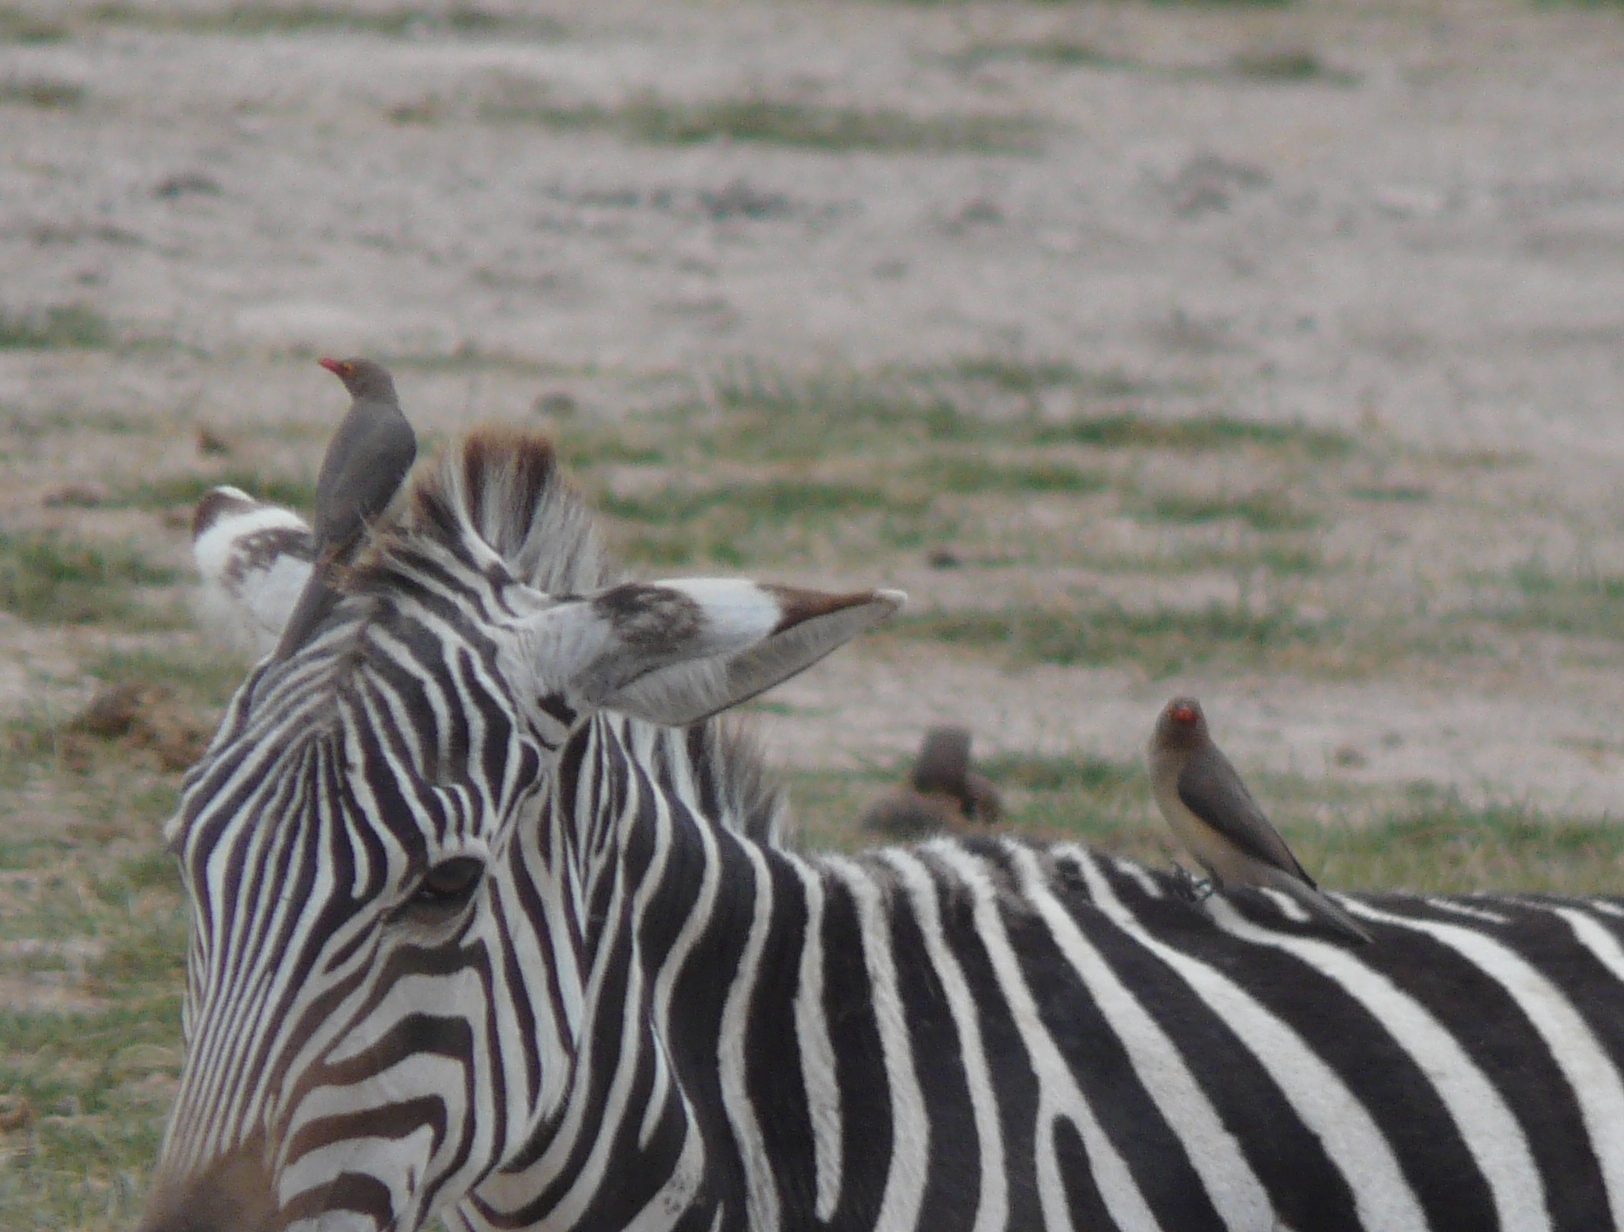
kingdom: Animalia
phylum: Chordata
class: Aves
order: Passeriformes
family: Buphagidae
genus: Buphagus
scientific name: Buphagus erythrorhynchus
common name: Red-billed oxpecker
